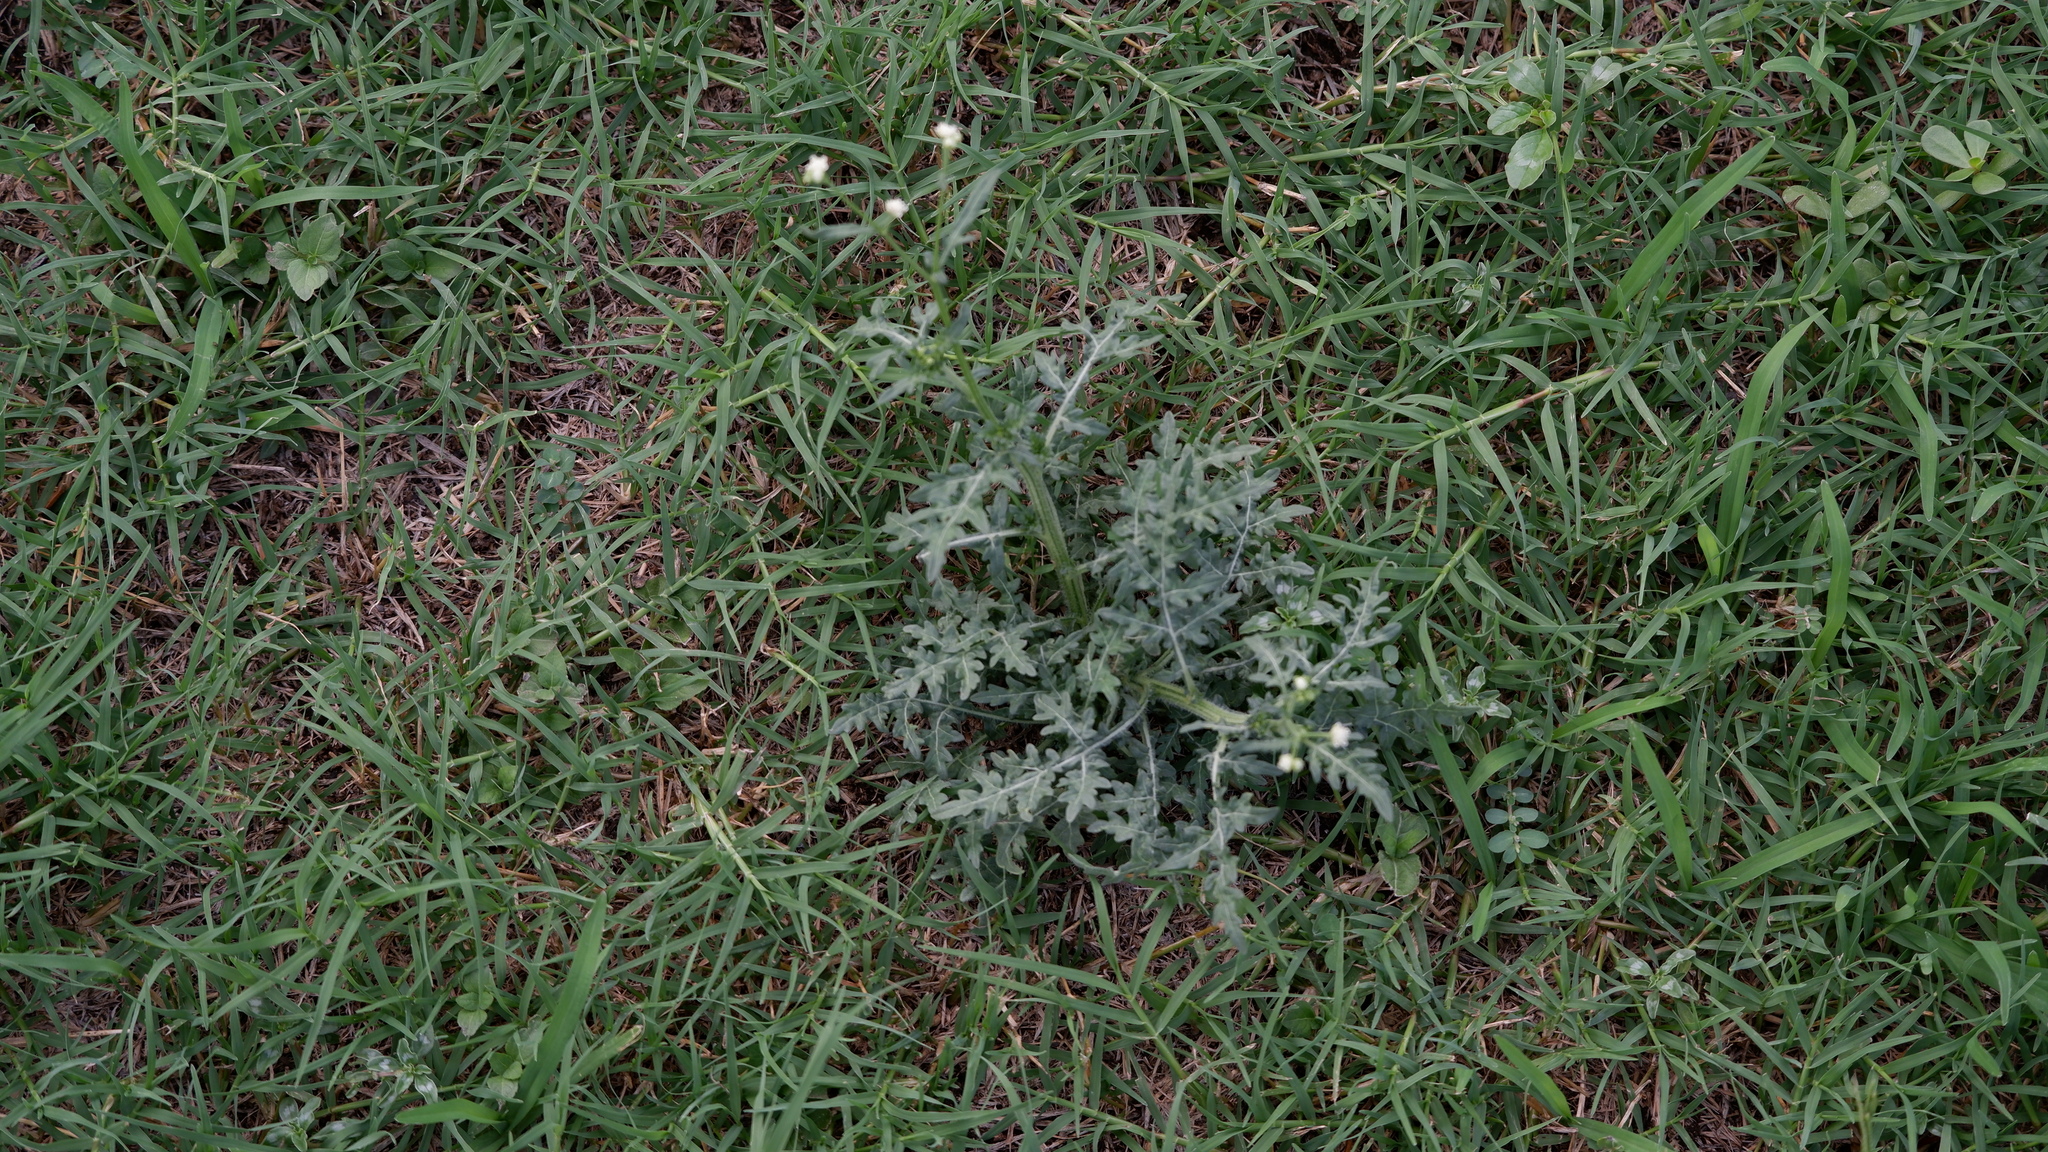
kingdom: Plantae
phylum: Tracheophyta
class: Magnoliopsida
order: Asterales
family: Asteraceae
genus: Parthenium
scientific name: Parthenium hysterophorus
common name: Santa maria feverfew
